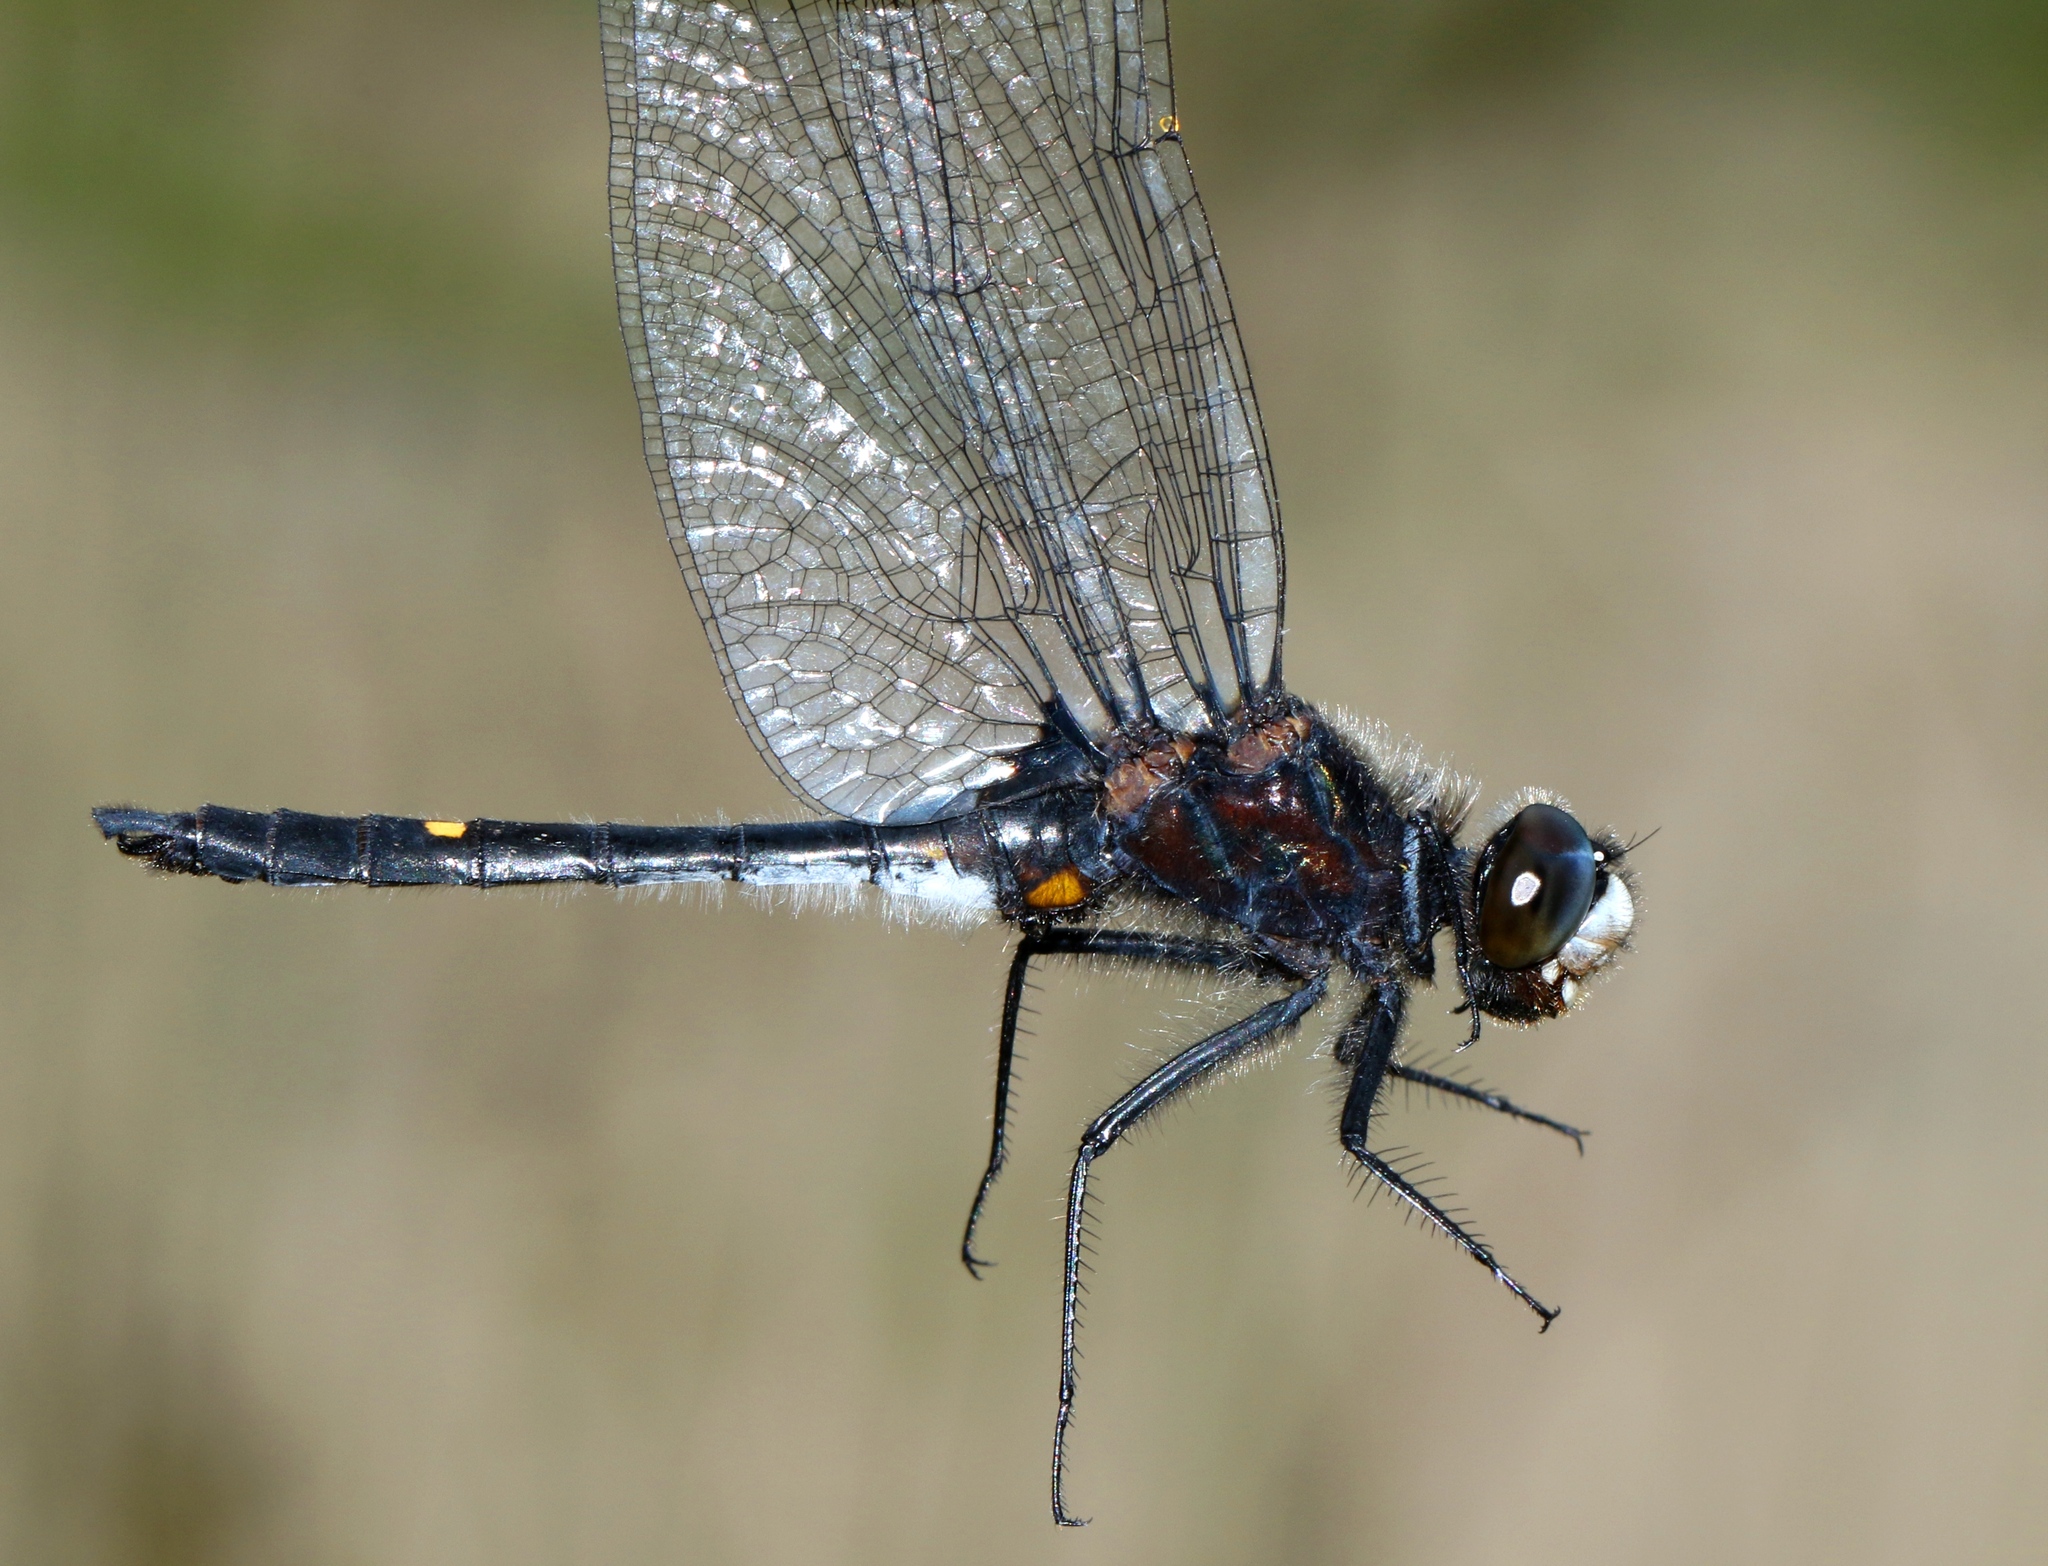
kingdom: Animalia
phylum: Arthropoda
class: Insecta
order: Odonata
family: Libellulidae
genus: Leucorrhinia
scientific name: Leucorrhinia intacta
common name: Dot-tailed whiteface
